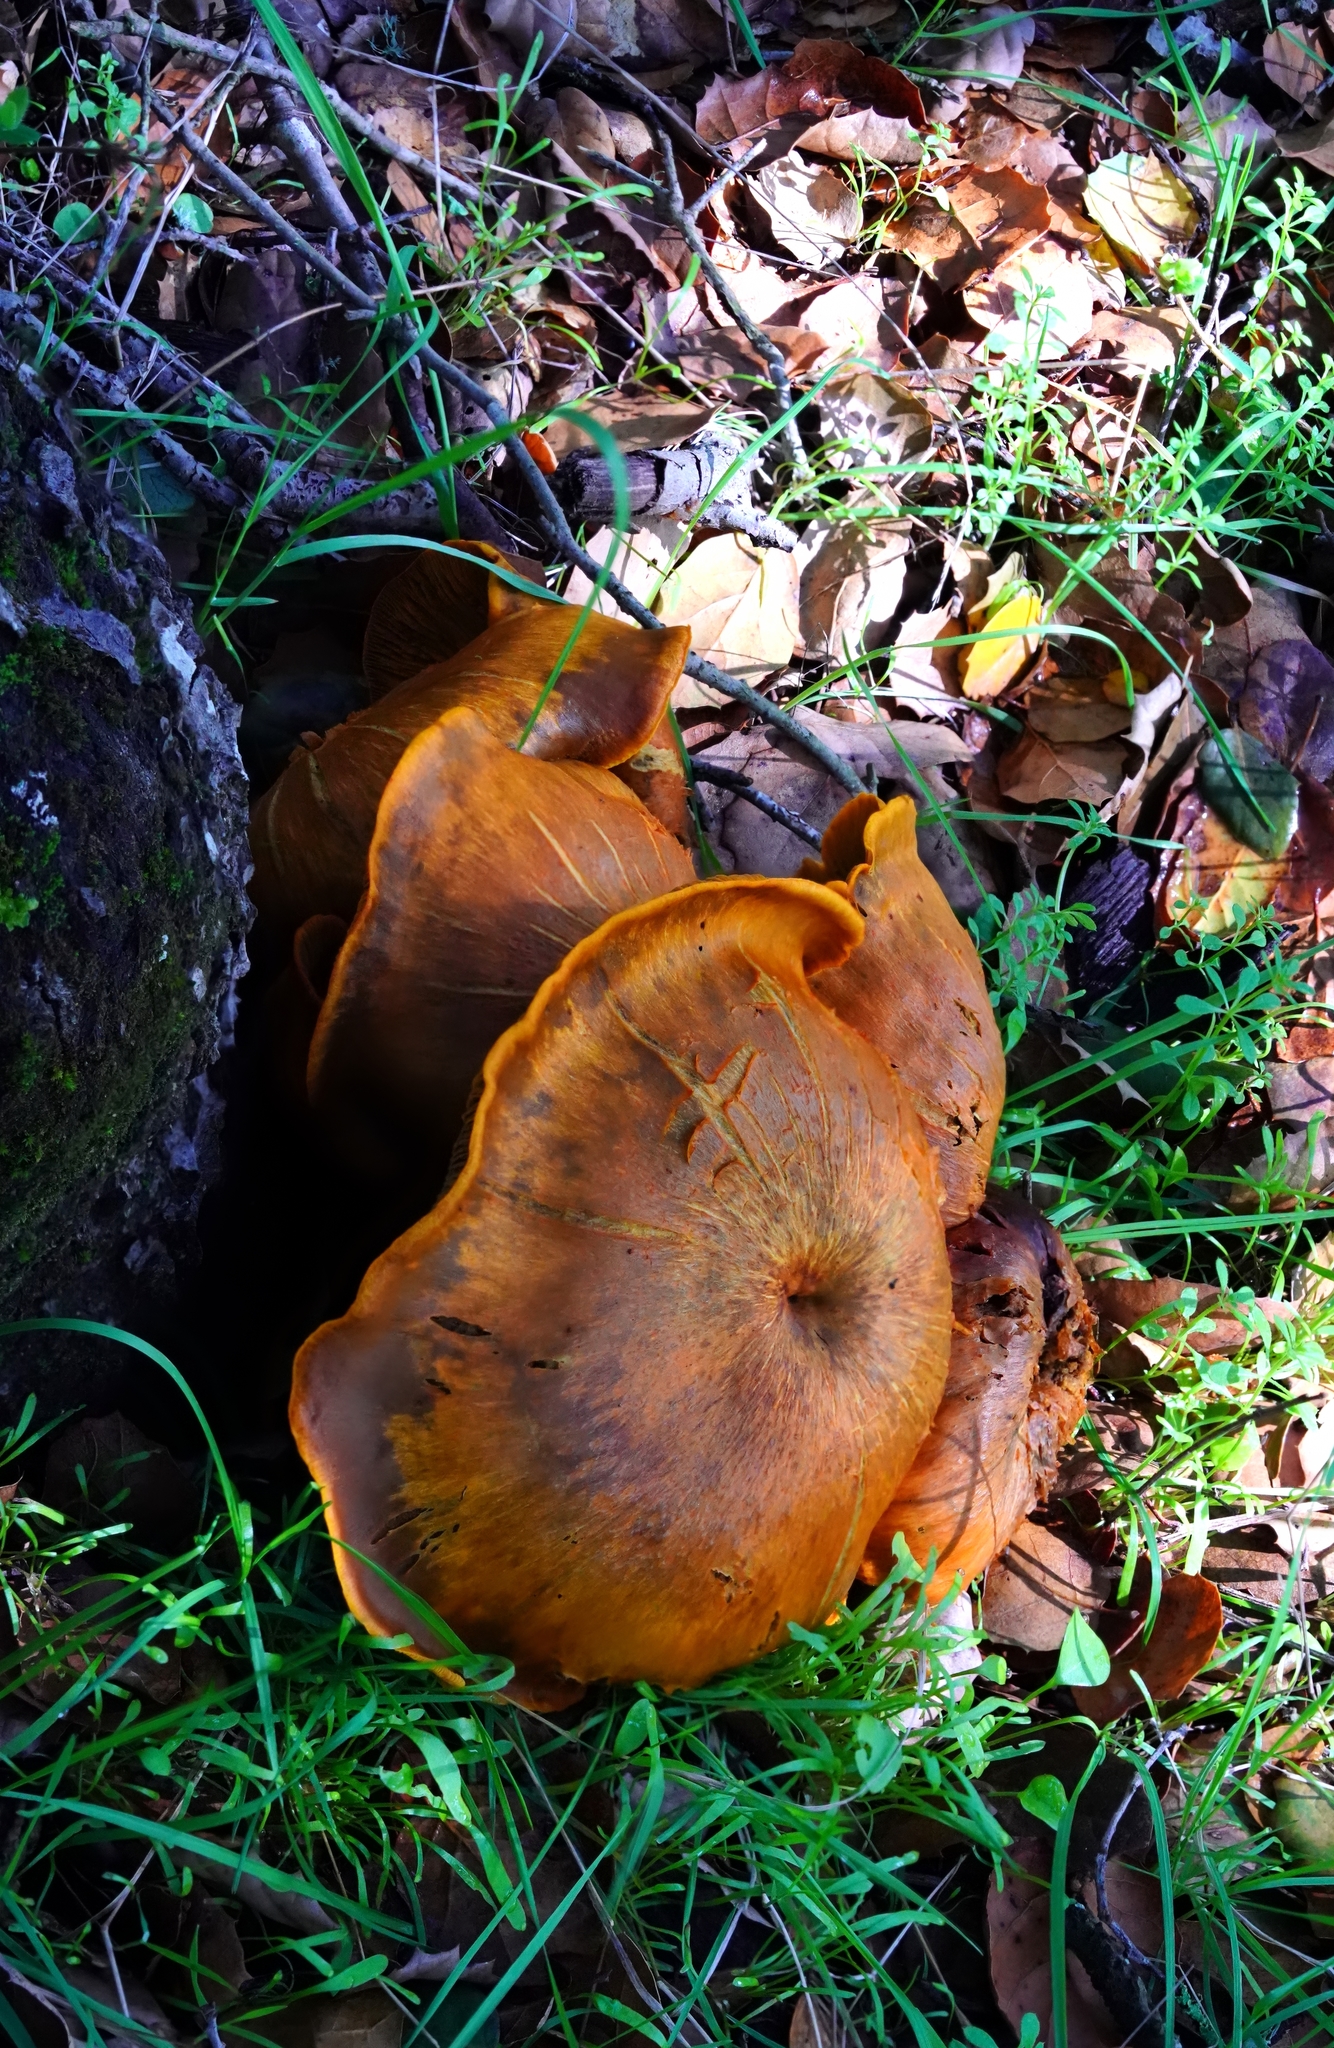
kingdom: Fungi
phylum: Basidiomycota
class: Agaricomycetes
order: Agaricales
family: Omphalotaceae
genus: Omphalotus
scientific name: Omphalotus olivascens
